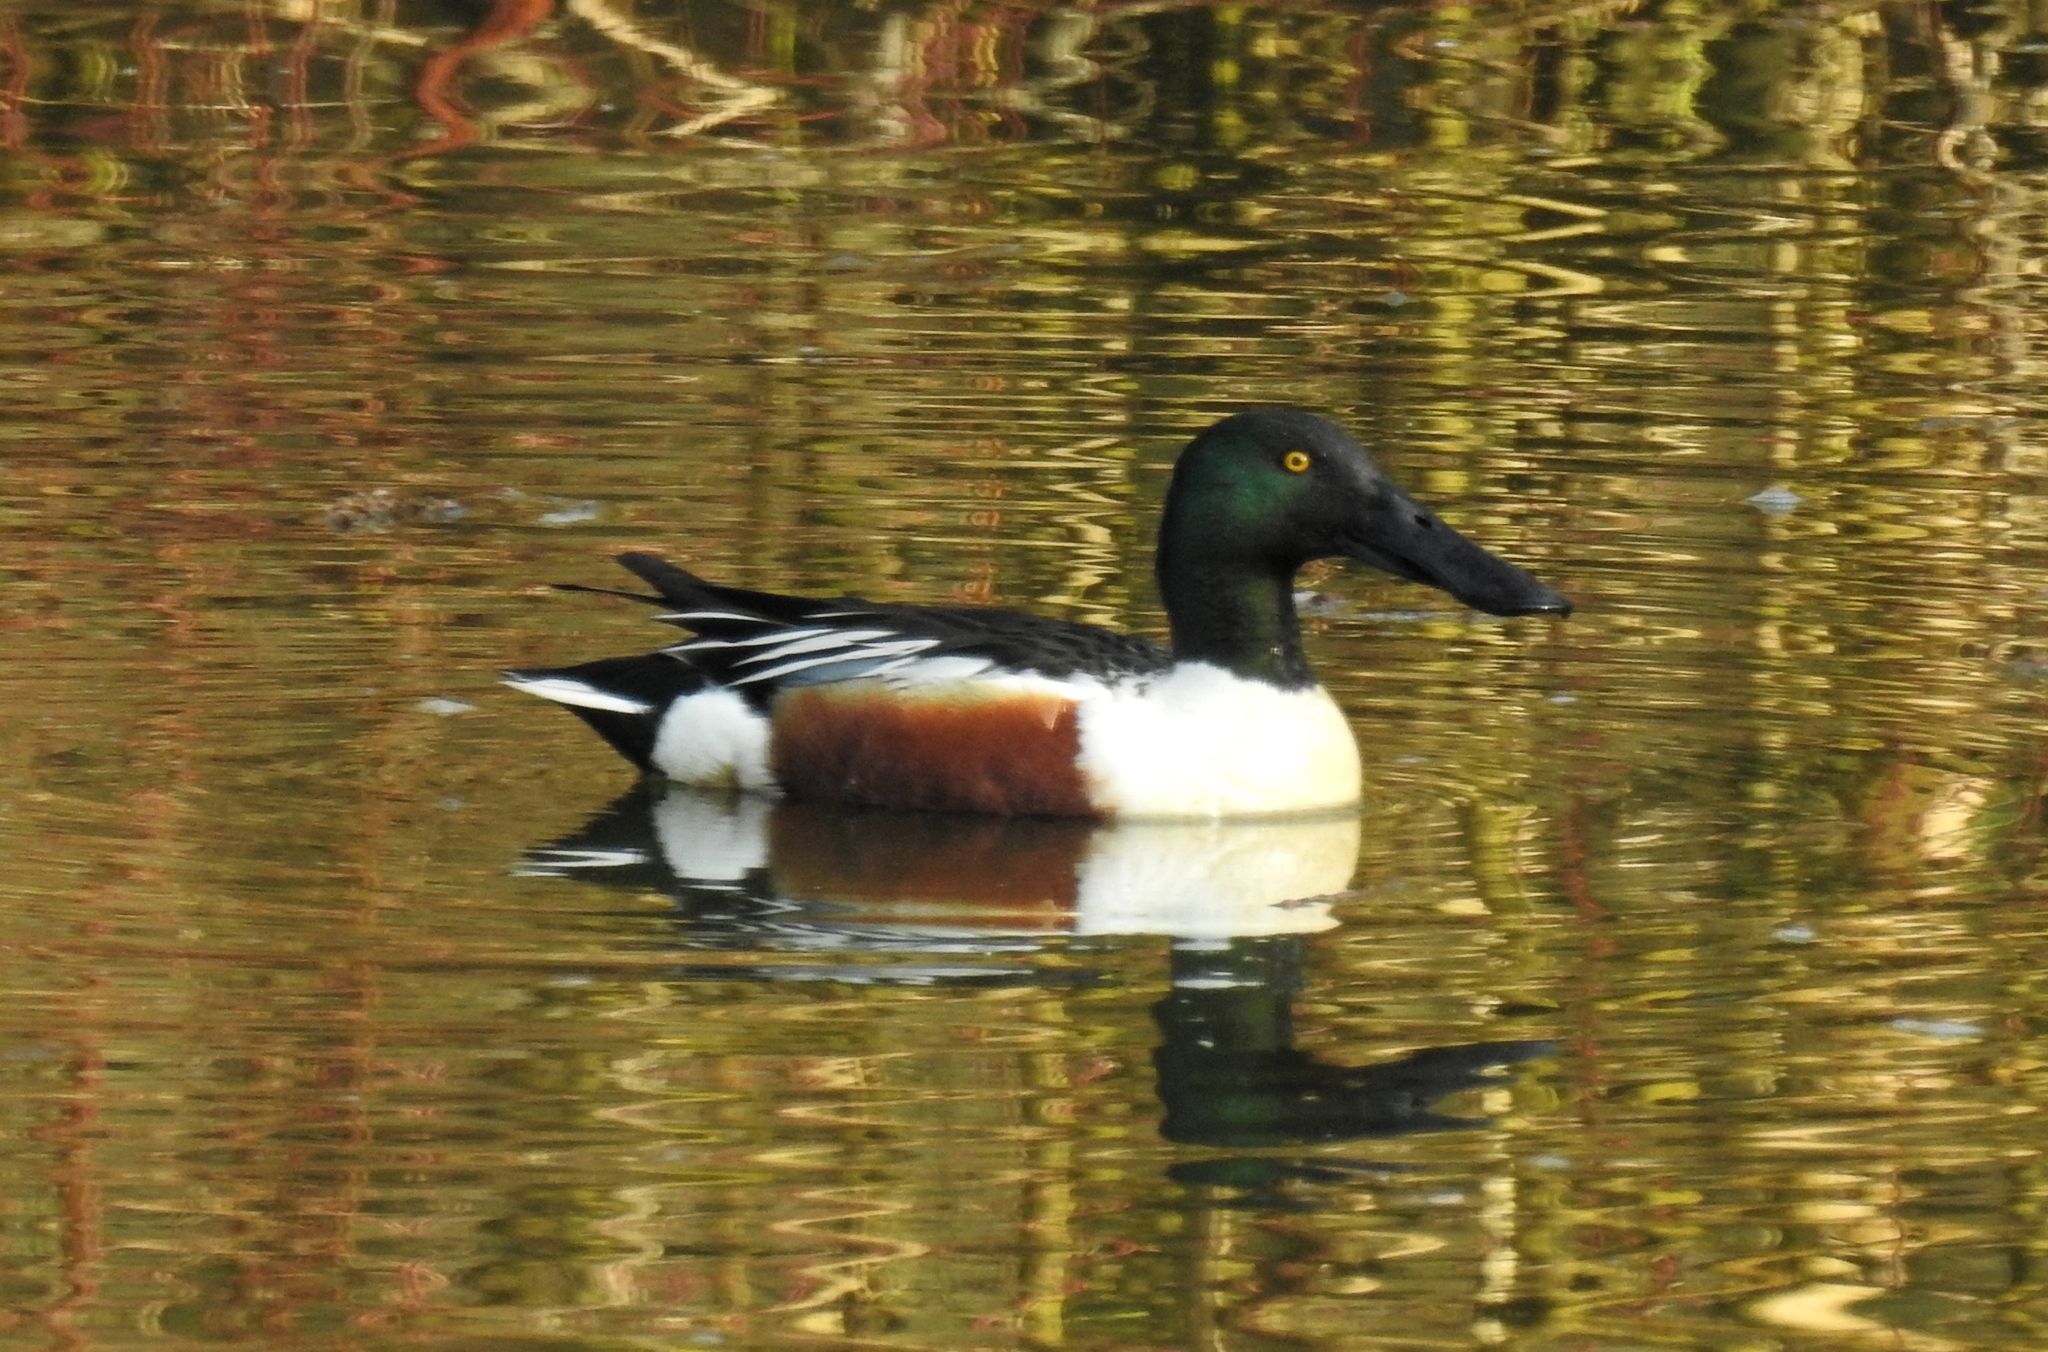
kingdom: Animalia
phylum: Chordata
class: Aves
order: Anseriformes
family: Anatidae
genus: Spatula
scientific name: Spatula clypeata
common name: Northern shoveler
